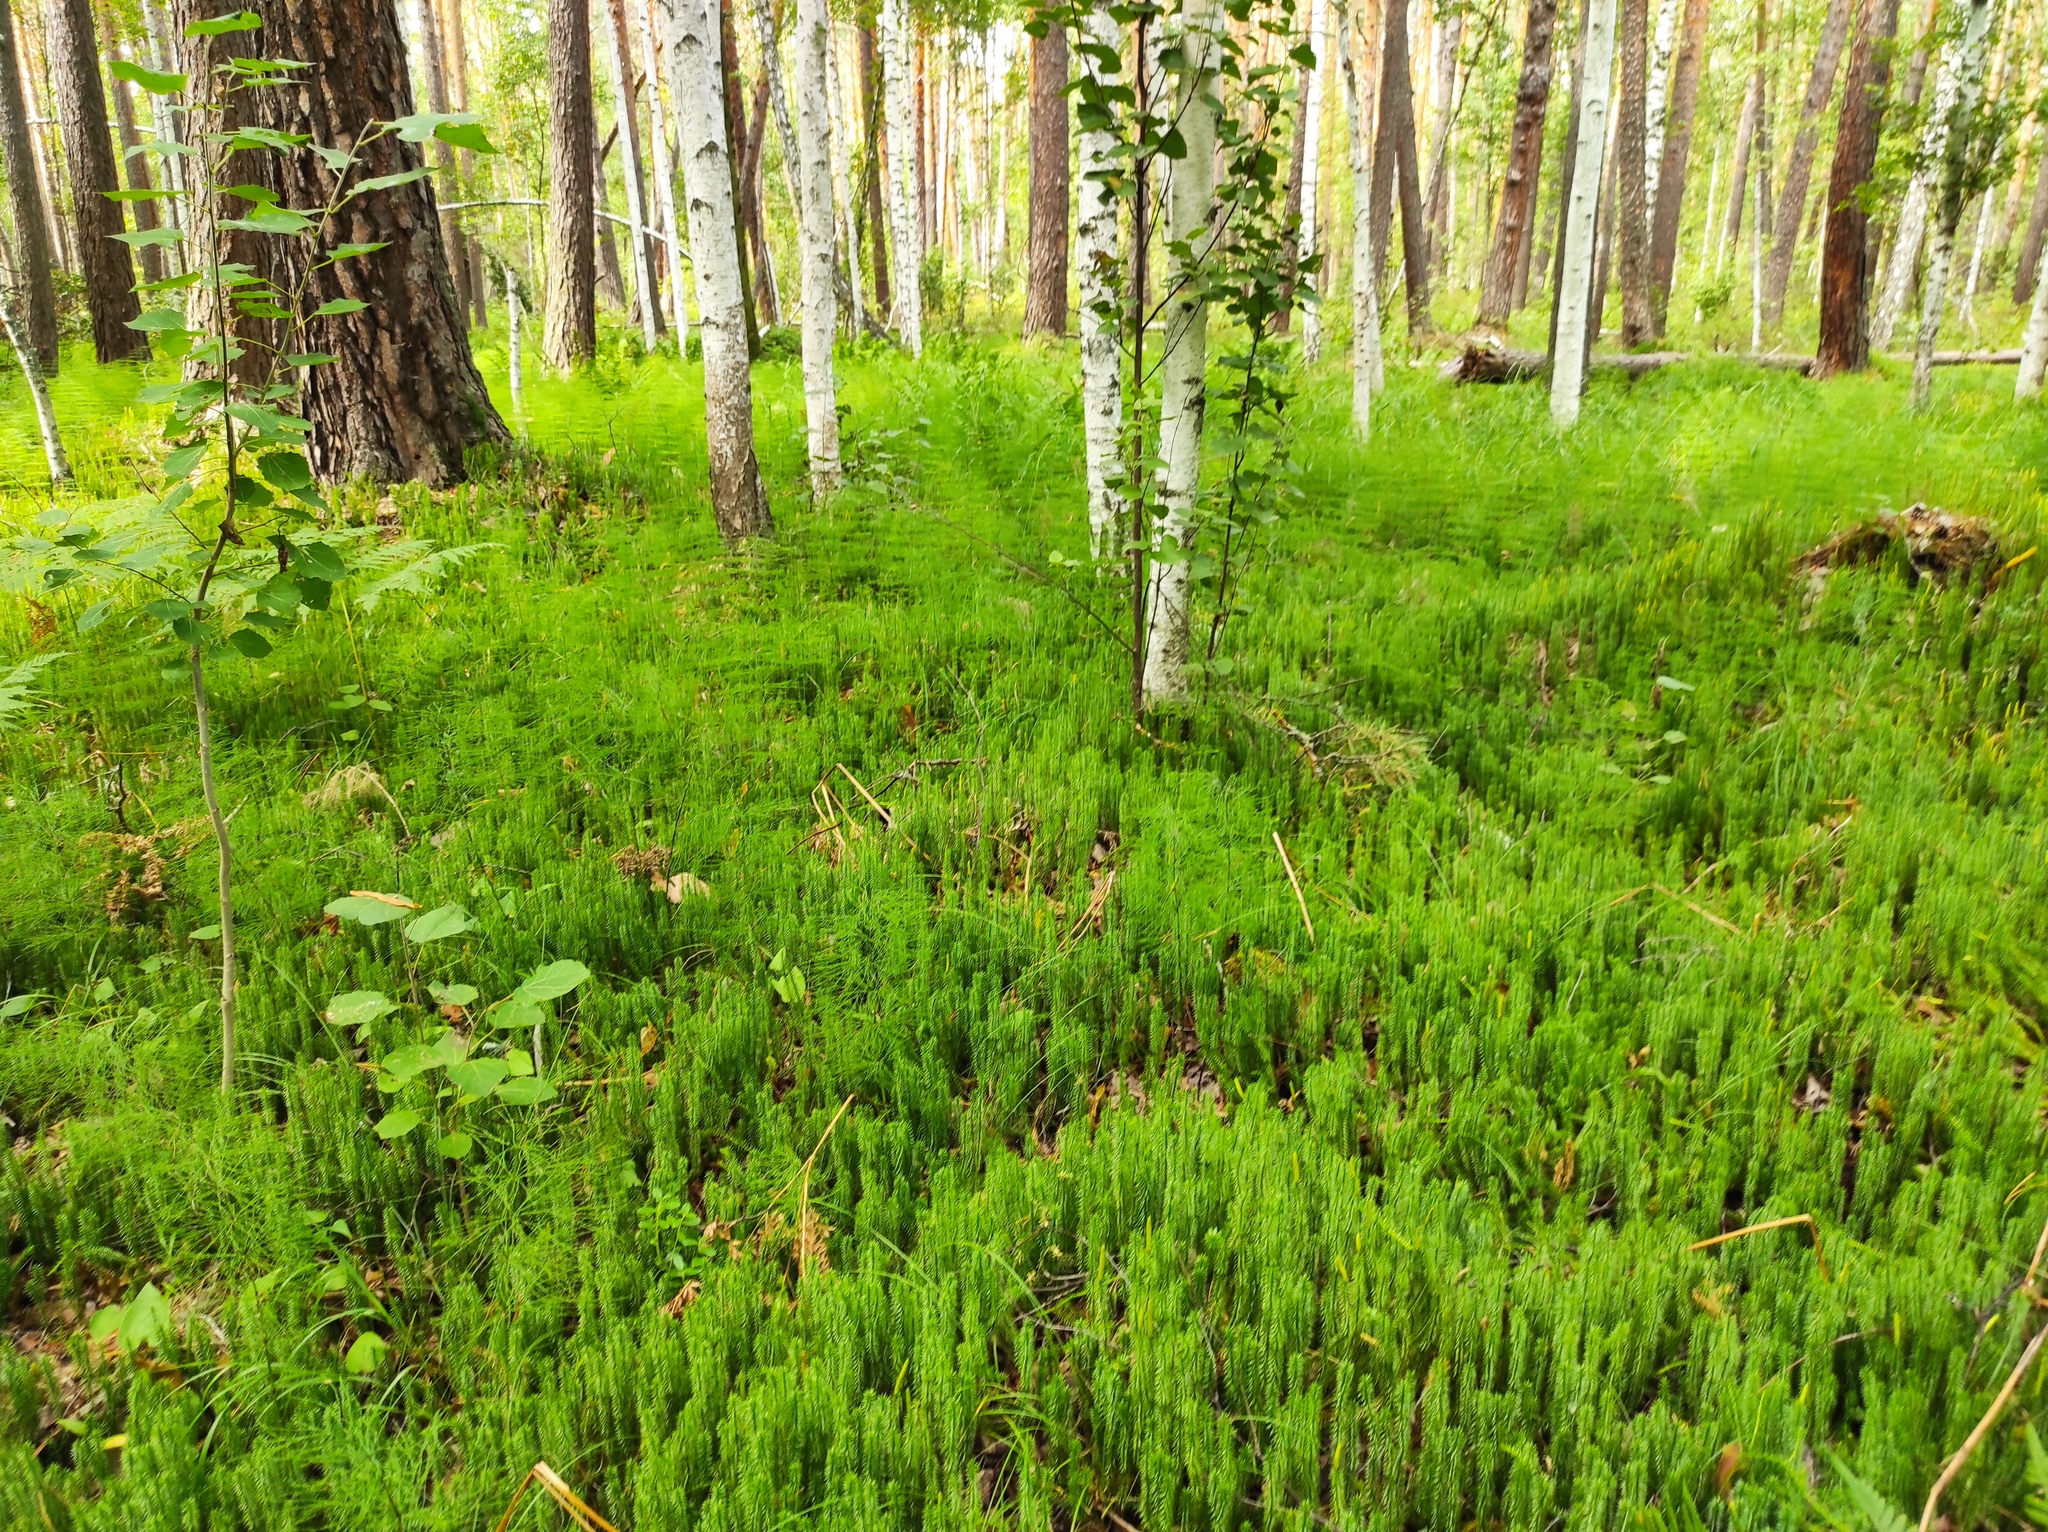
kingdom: Plantae
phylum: Tracheophyta
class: Lycopodiopsida
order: Lycopodiales
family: Lycopodiaceae
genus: Spinulum
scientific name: Spinulum annotinum
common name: Interrupted club-moss
